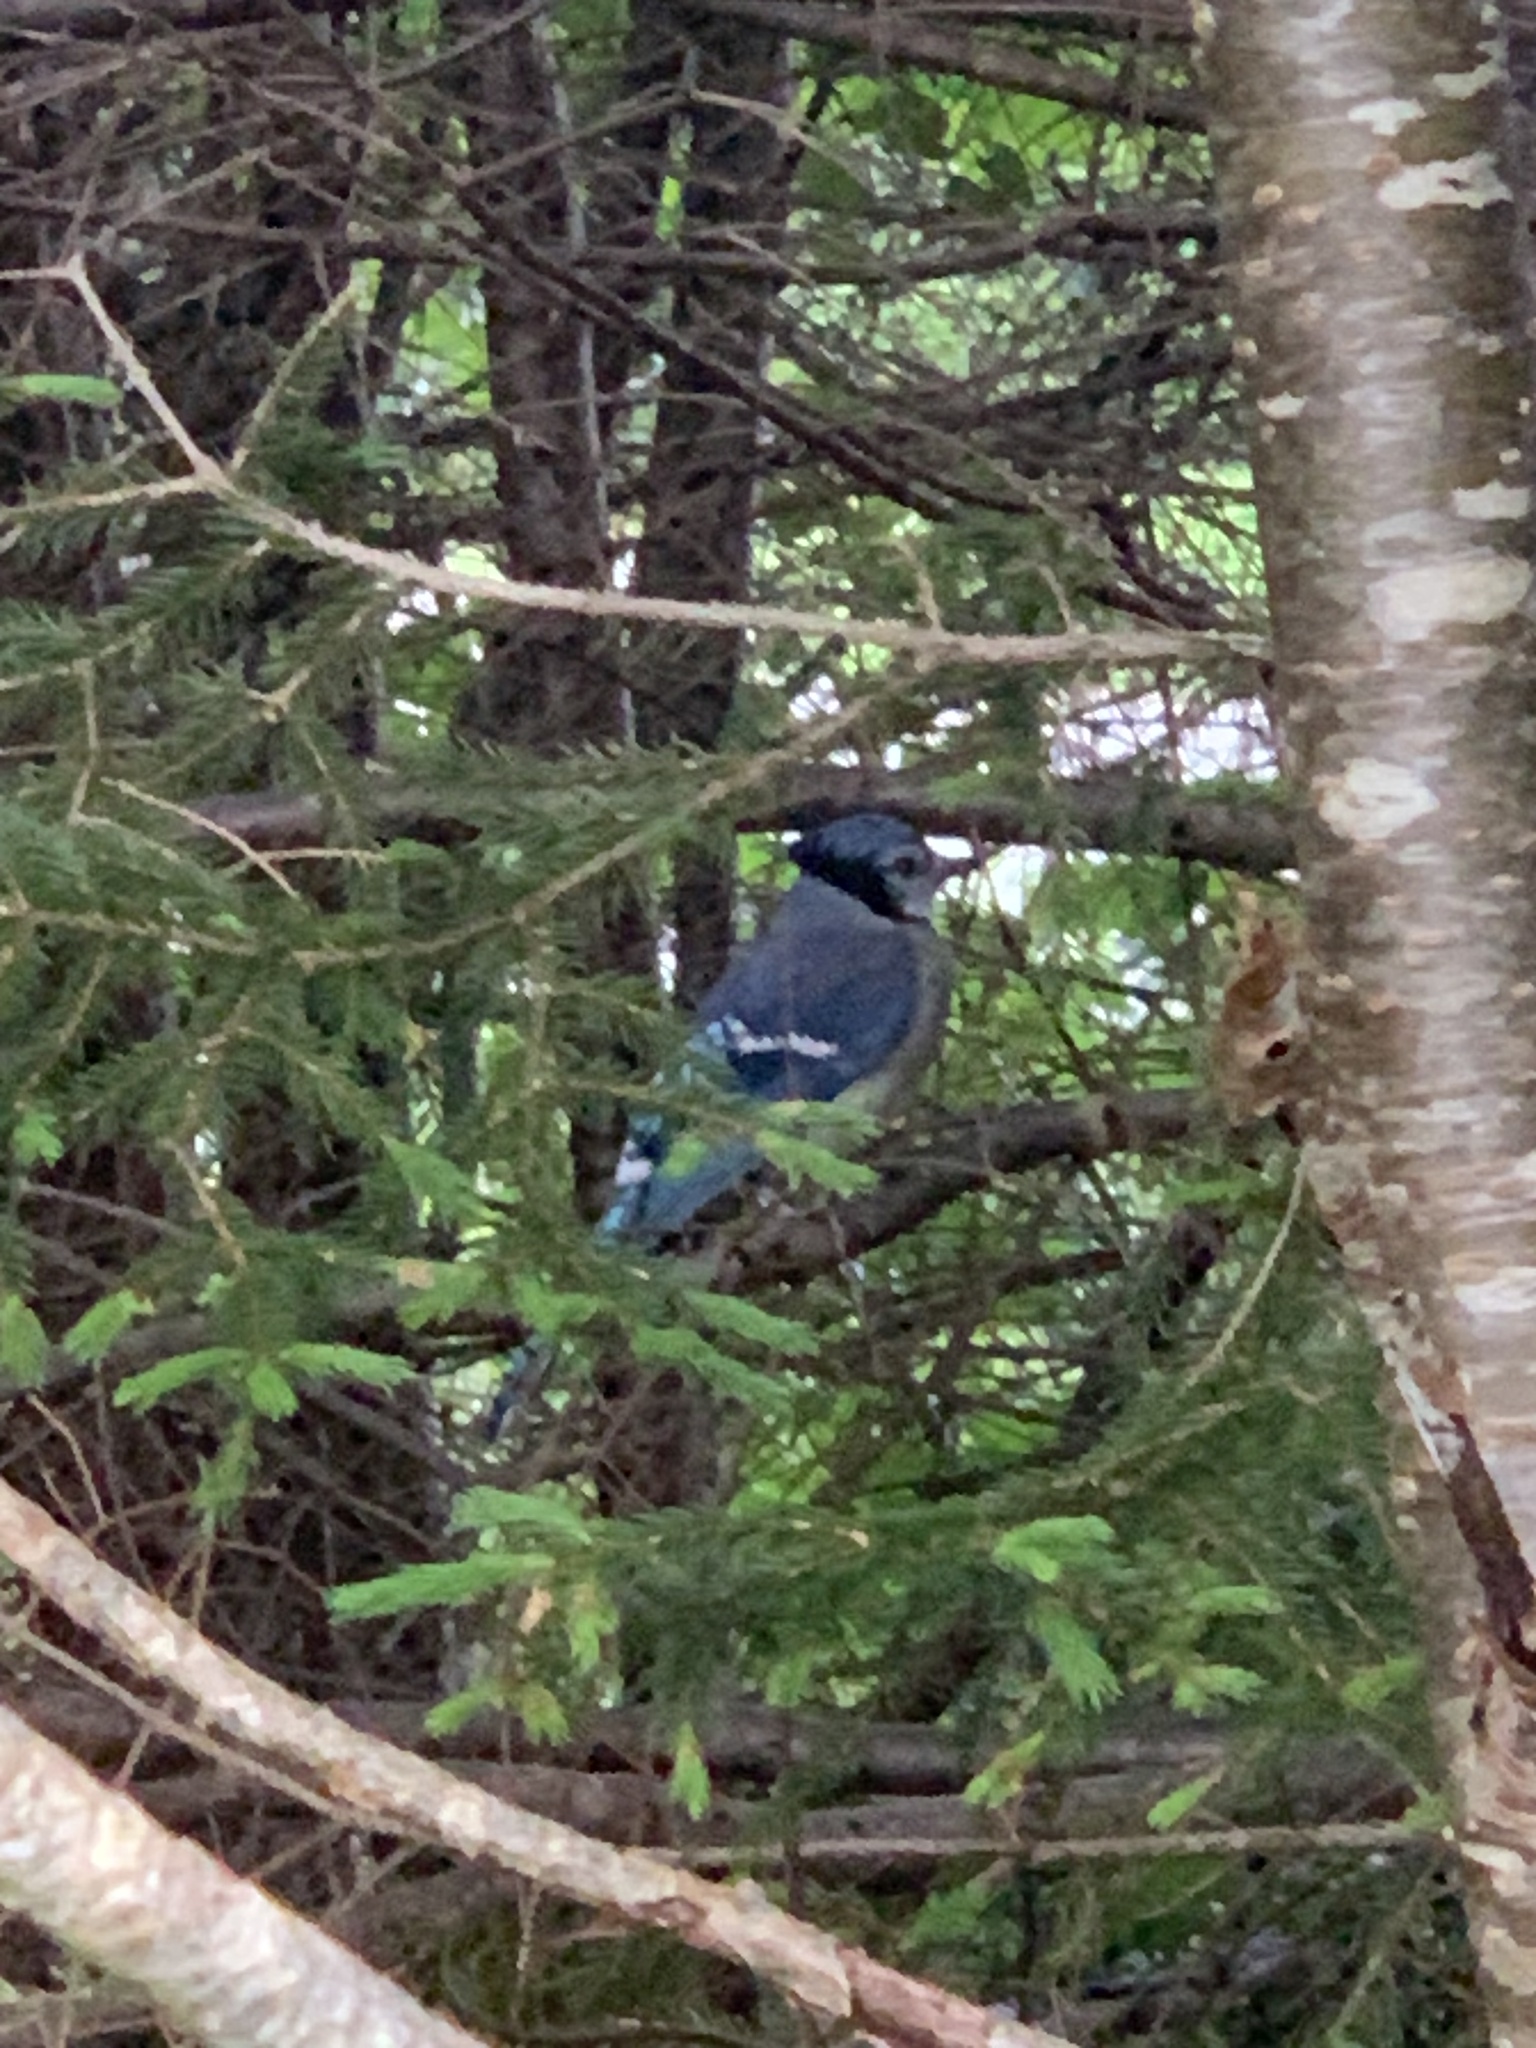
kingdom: Animalia
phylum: Chordata
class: Aves
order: Passeriformes
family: Corvidae
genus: Cyanocitta
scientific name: Cyanocitta cristata
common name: Blue jay
